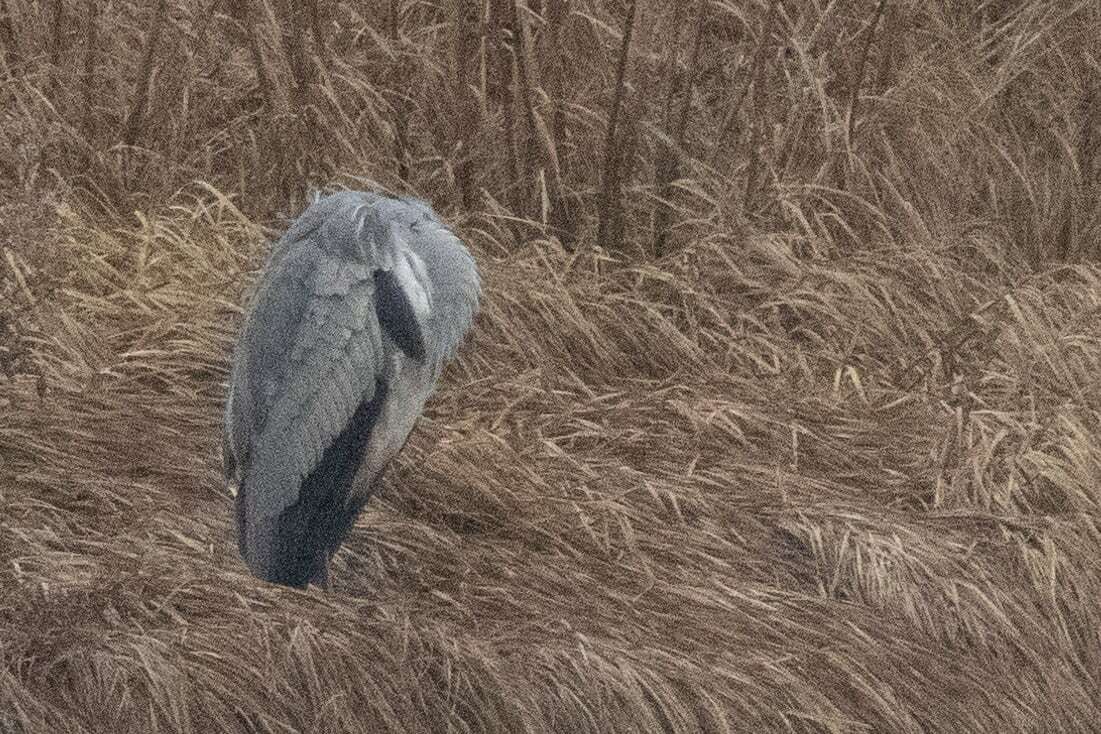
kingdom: Animalia
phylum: Chordata
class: Aves
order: Pelecaniformes
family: Ardeidae
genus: Ardea
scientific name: Ardea cinerea
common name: Grey heron
